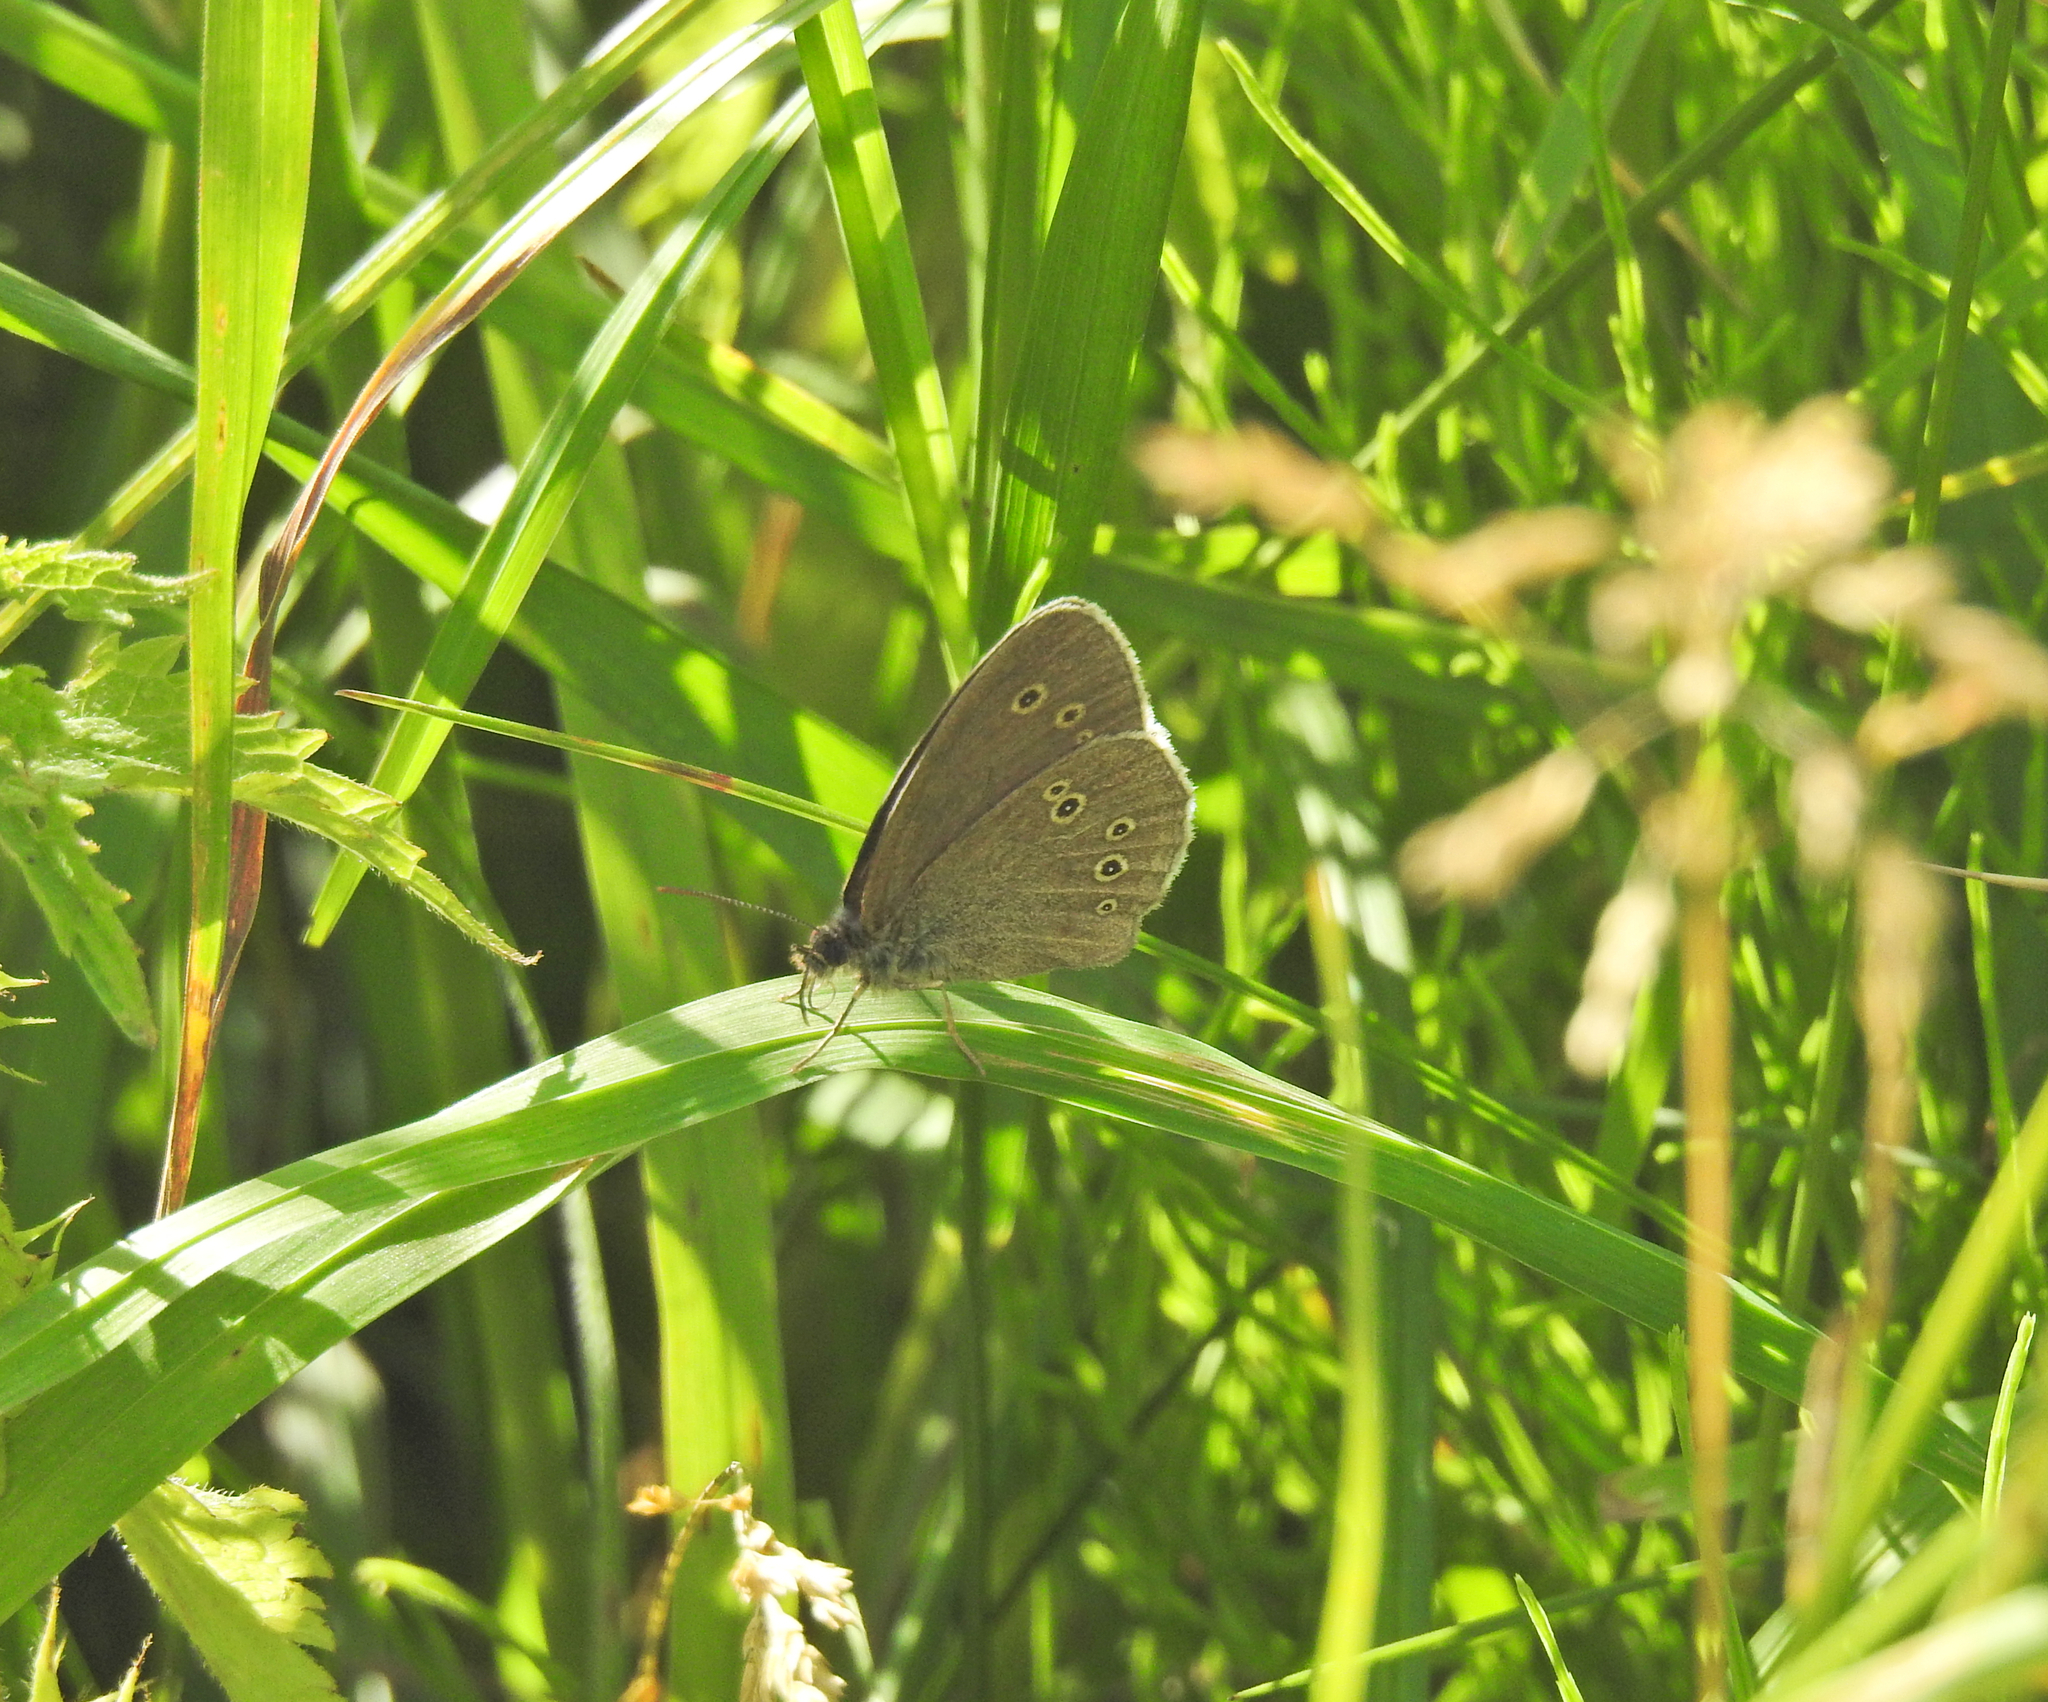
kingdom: Animalia
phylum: Arthropoda
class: Insecta
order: Lepidoptera
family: Nymphalidae
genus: Aphantopus
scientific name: Aphantopus hyperantus
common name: Ringlet
